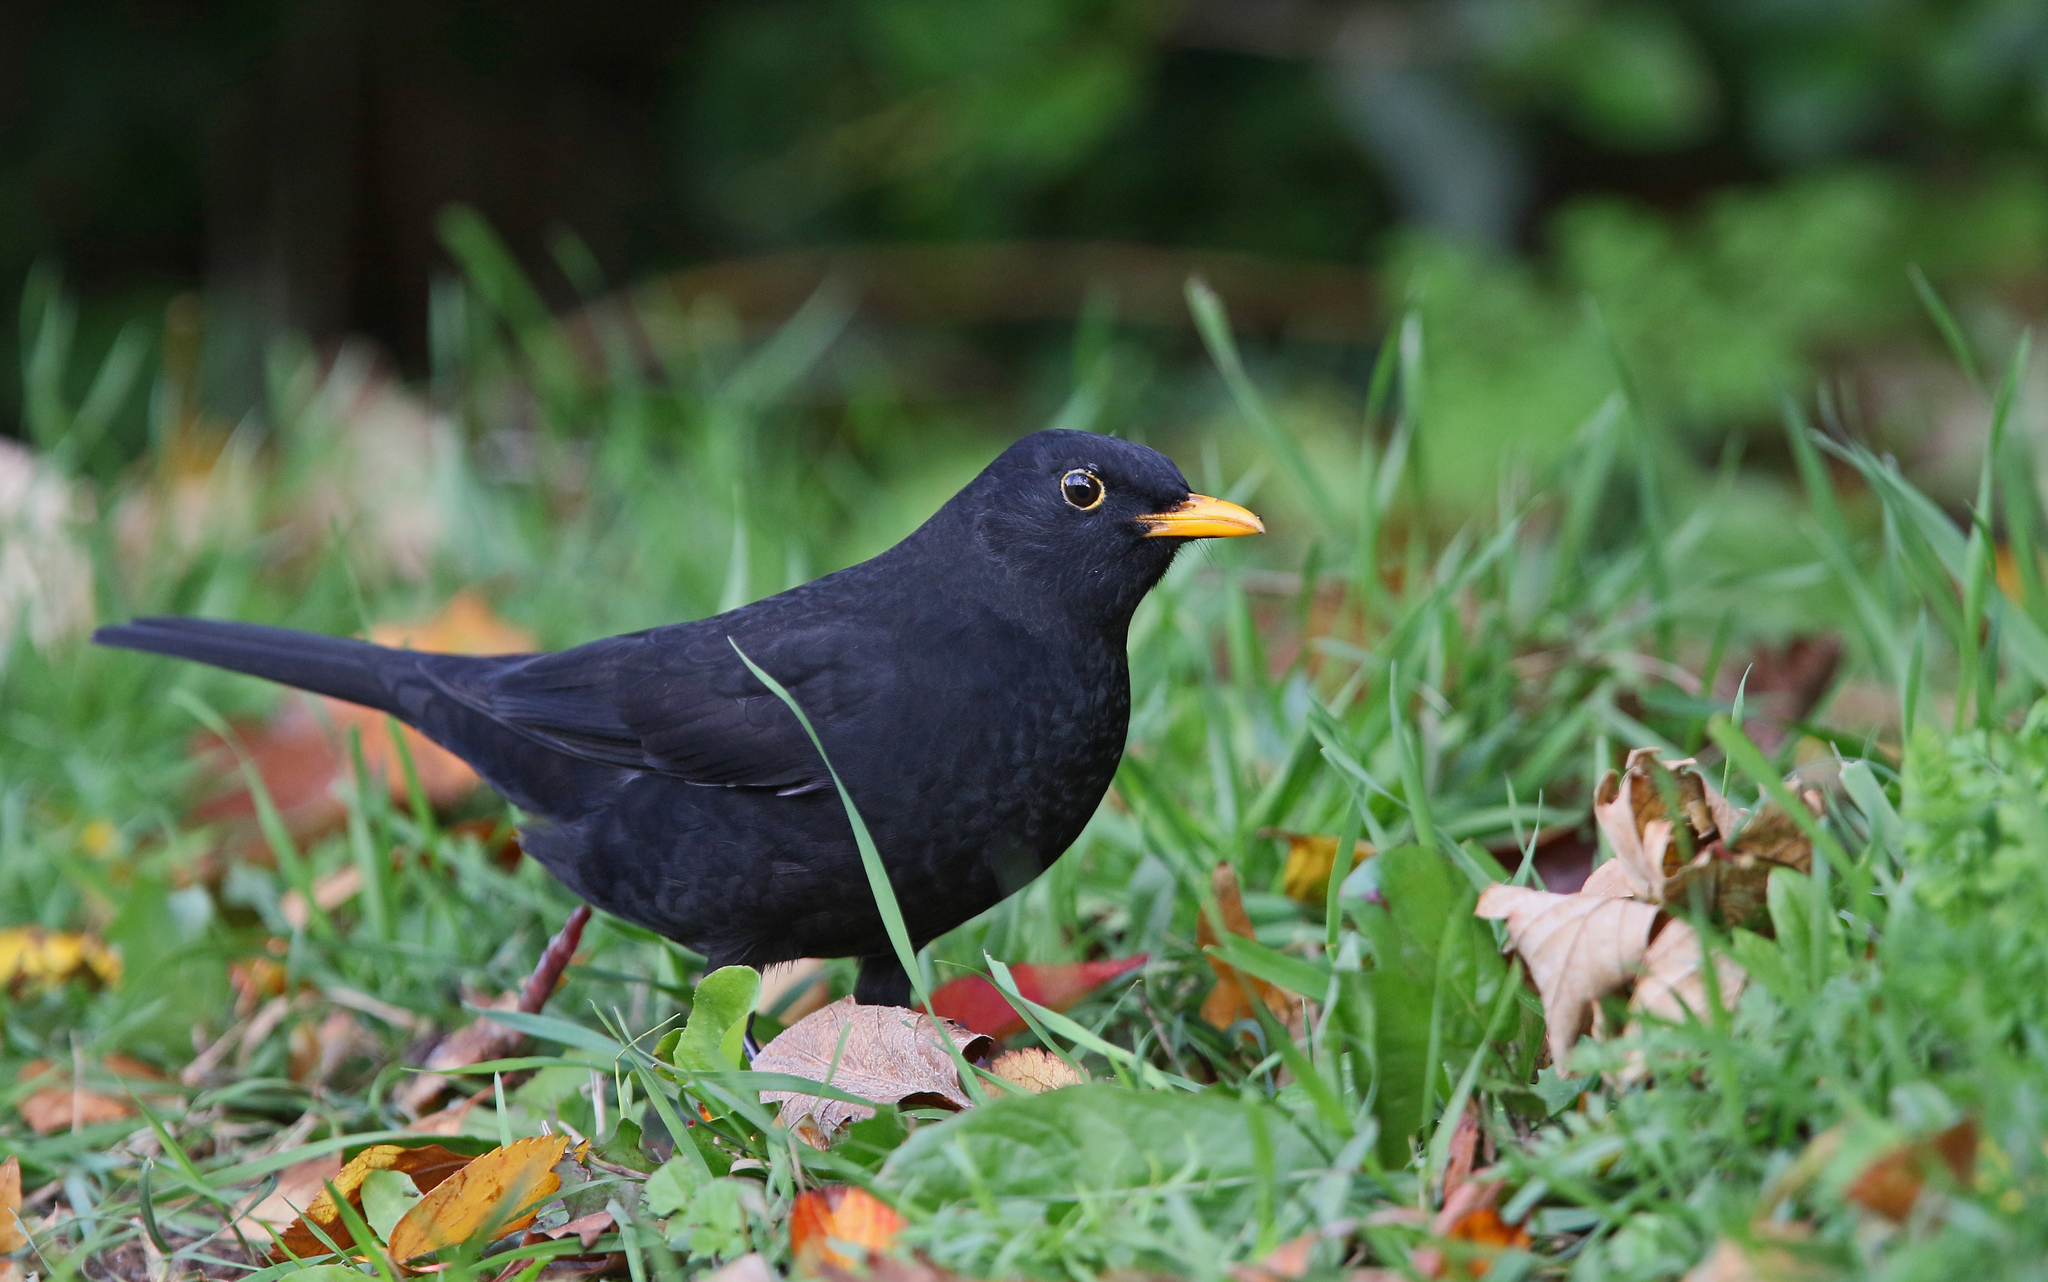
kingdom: Animalia
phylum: Chordata
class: Aves
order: Passeriformes
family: Turdidae
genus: Turdus
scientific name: Turdus merula
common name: Common blackbird
